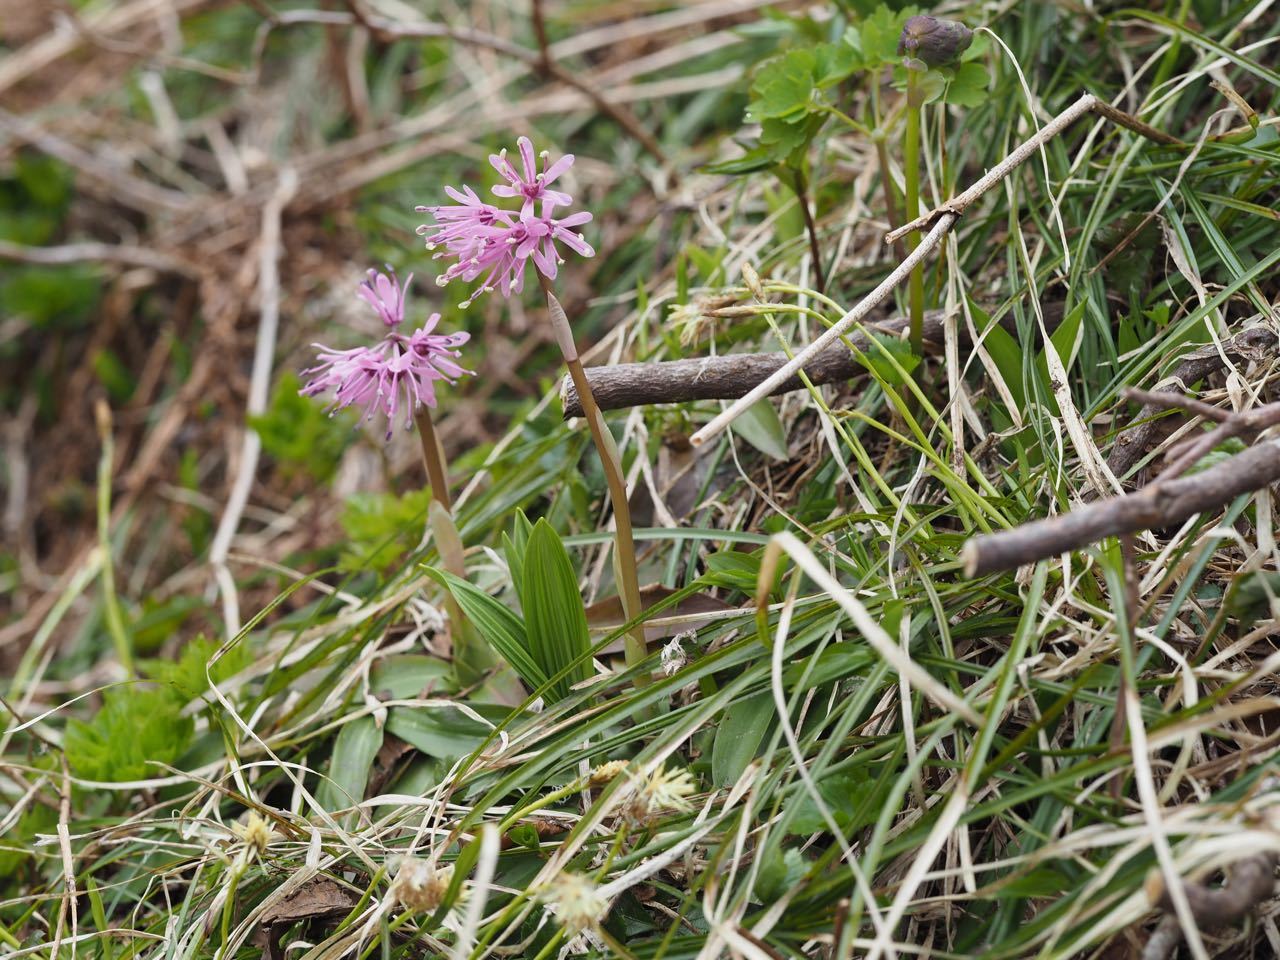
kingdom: Plantae
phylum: Tracheophyta
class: Liliopsida
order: Liliales
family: Melanthiaceae
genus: Helonias
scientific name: Helonias orientalis
